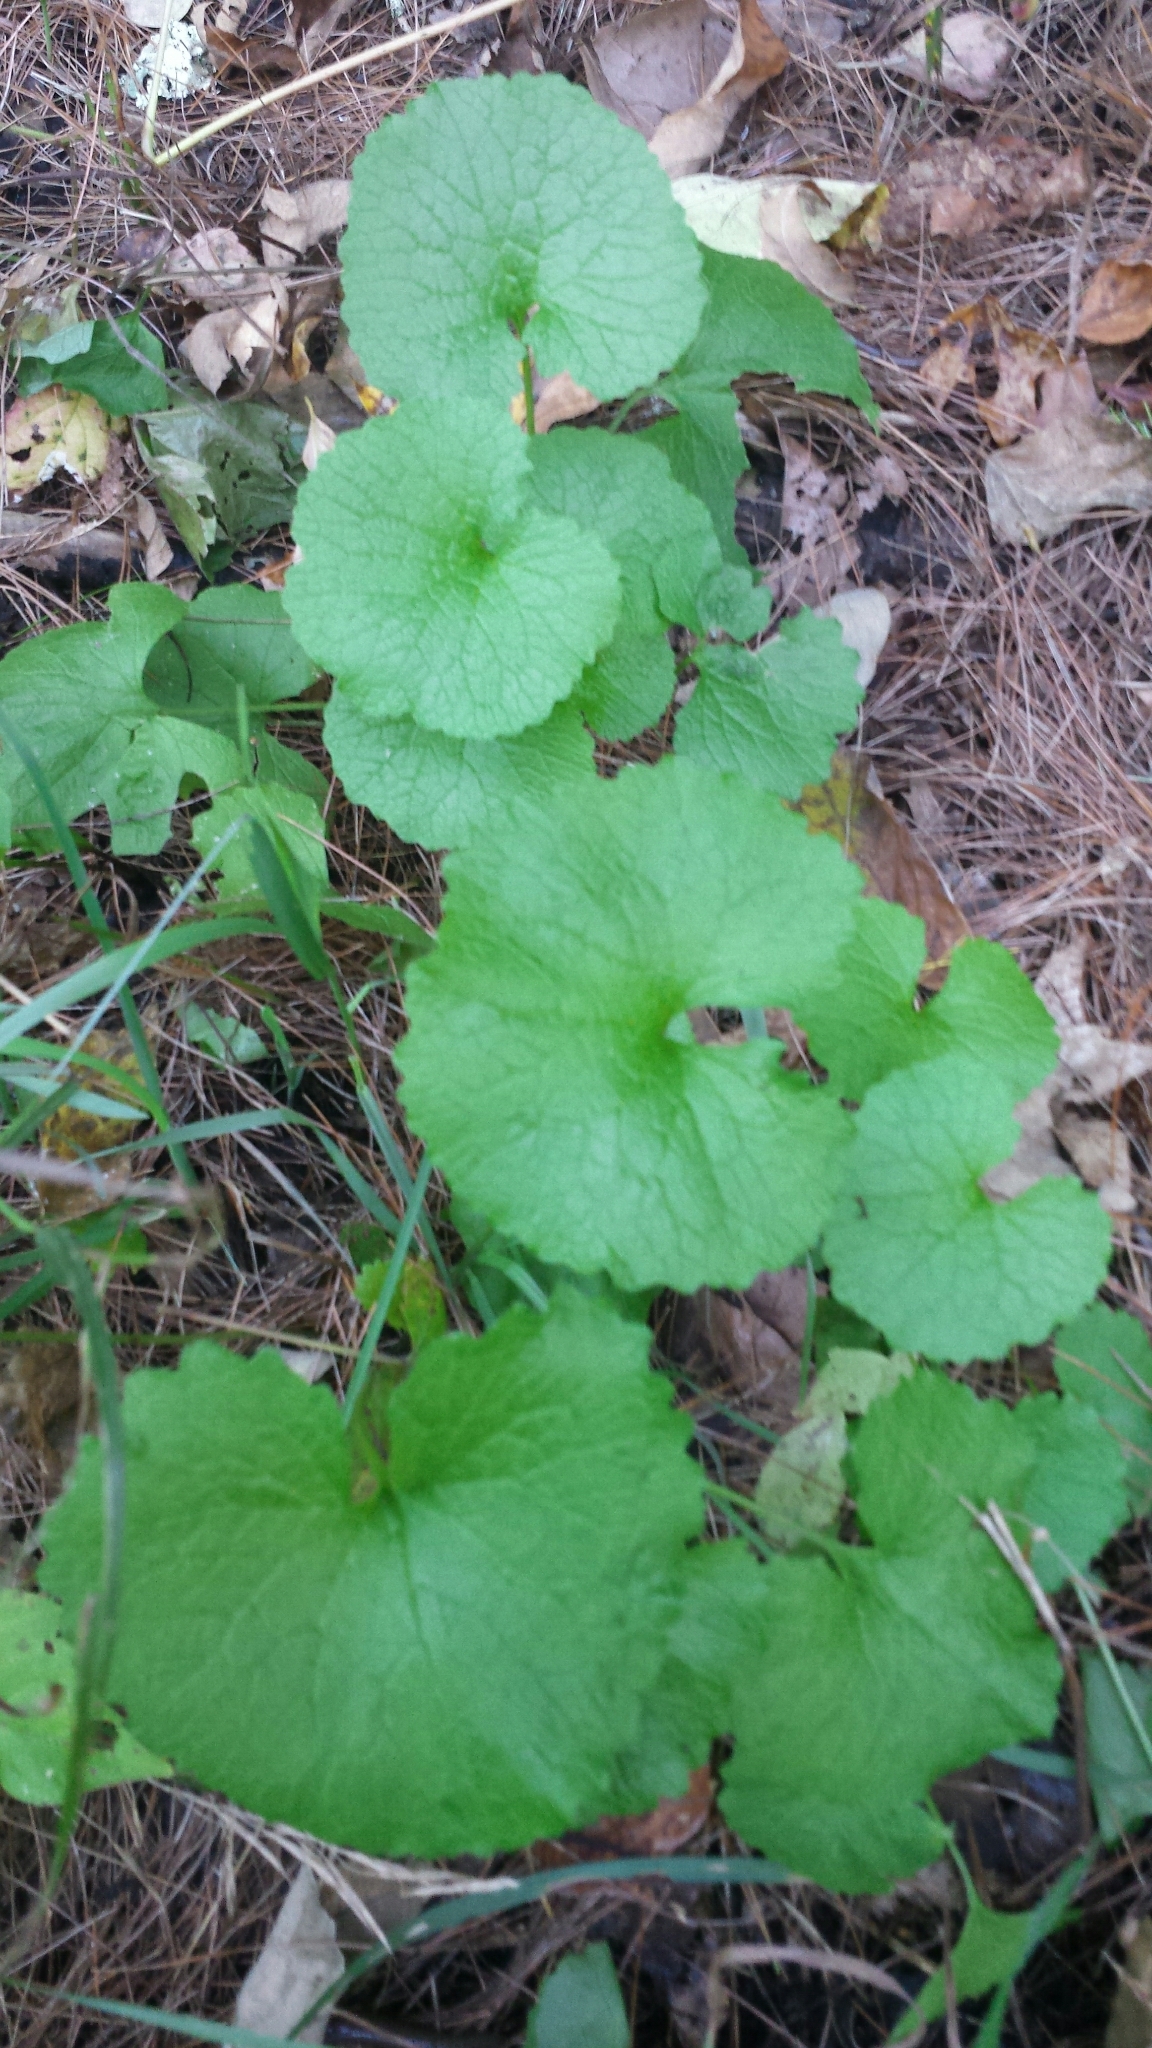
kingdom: Plantae
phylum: Tracheophyta
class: Magnoliopsida
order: Brassicales
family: Brassicaceae
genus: Alliaria
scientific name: Alliaria petiolata
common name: Garlic mustard
